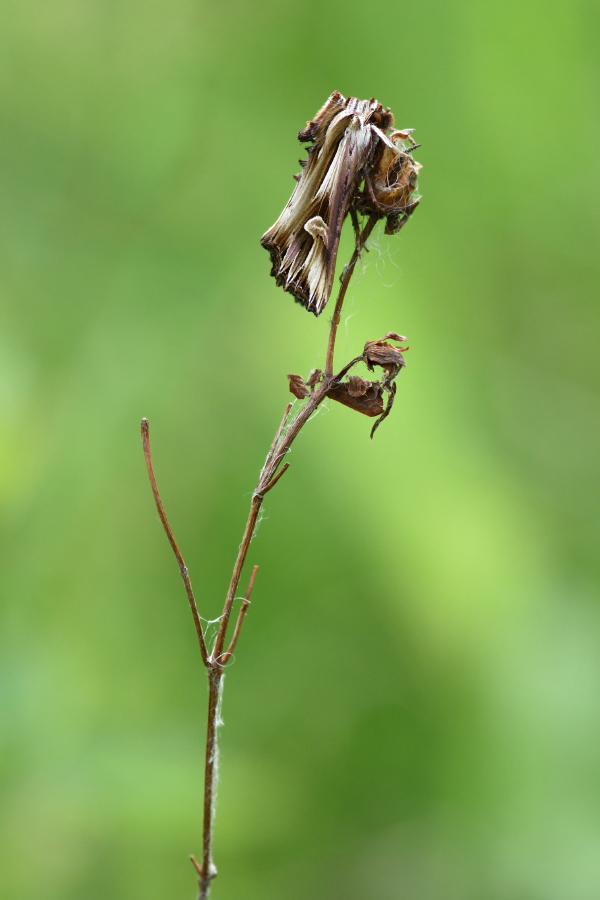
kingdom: Animalia
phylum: Arthropoda
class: Insecta
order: Lepidoptera
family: Noctuidae
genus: Actinotia
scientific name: Actinotia polyodon
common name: Purple cloud
